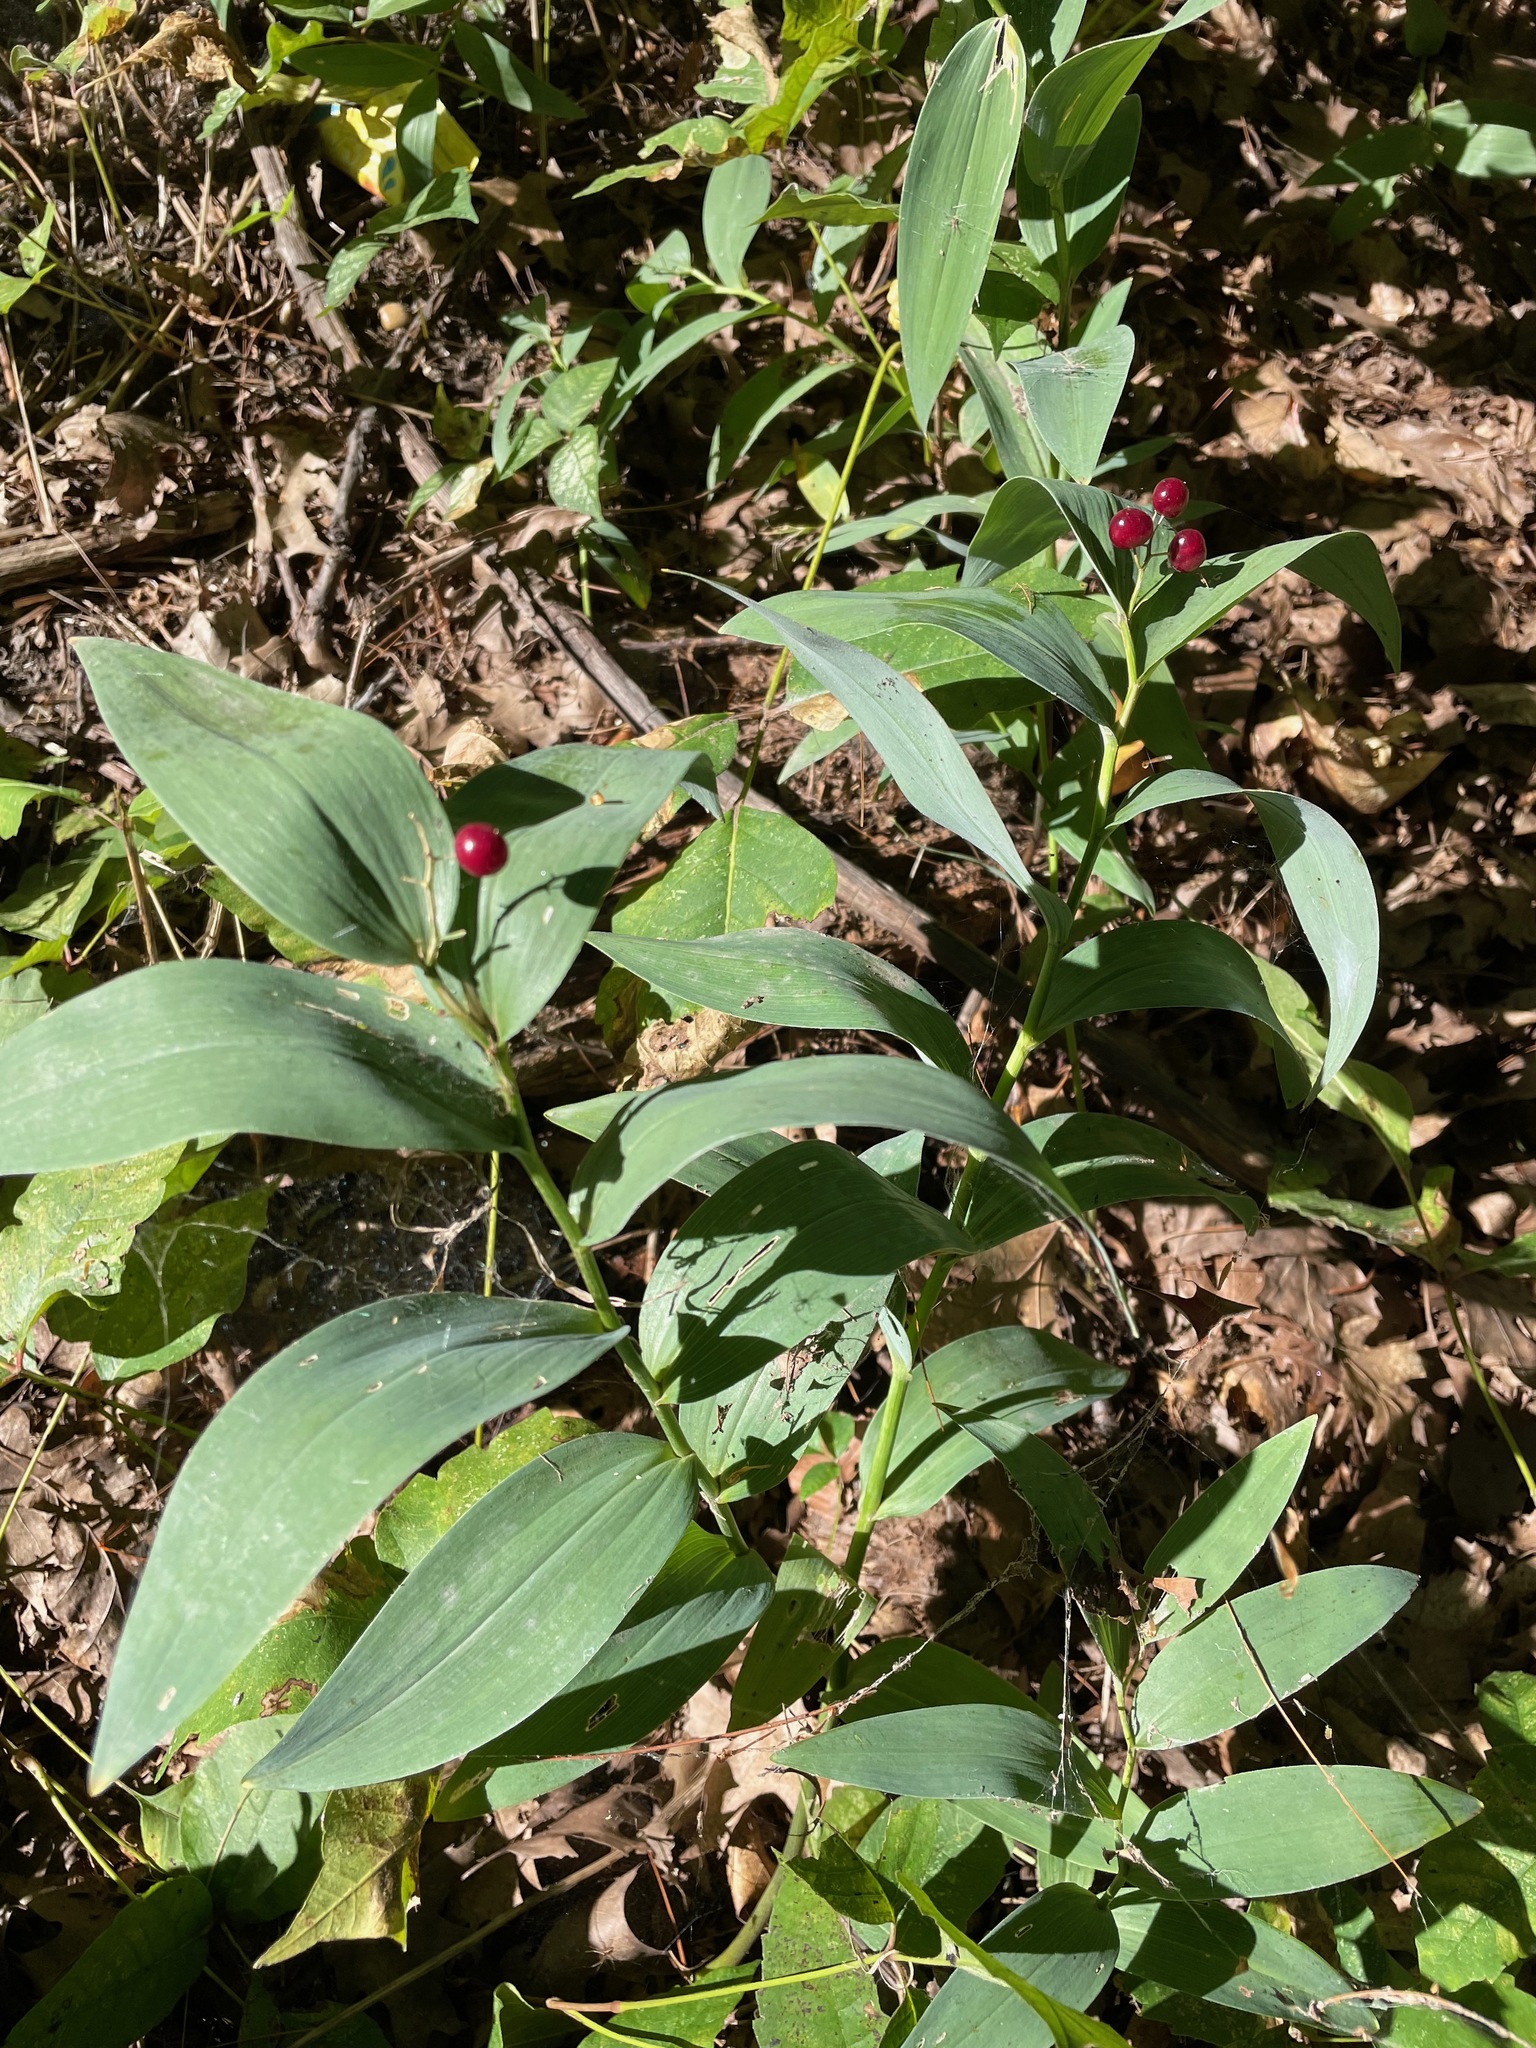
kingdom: Plantae
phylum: Tracheophyta
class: Liliopsida
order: Asparagales
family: Asparagaceae
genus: Maianthemum
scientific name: Maianthemum stellatum
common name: Little false solomon's seal
